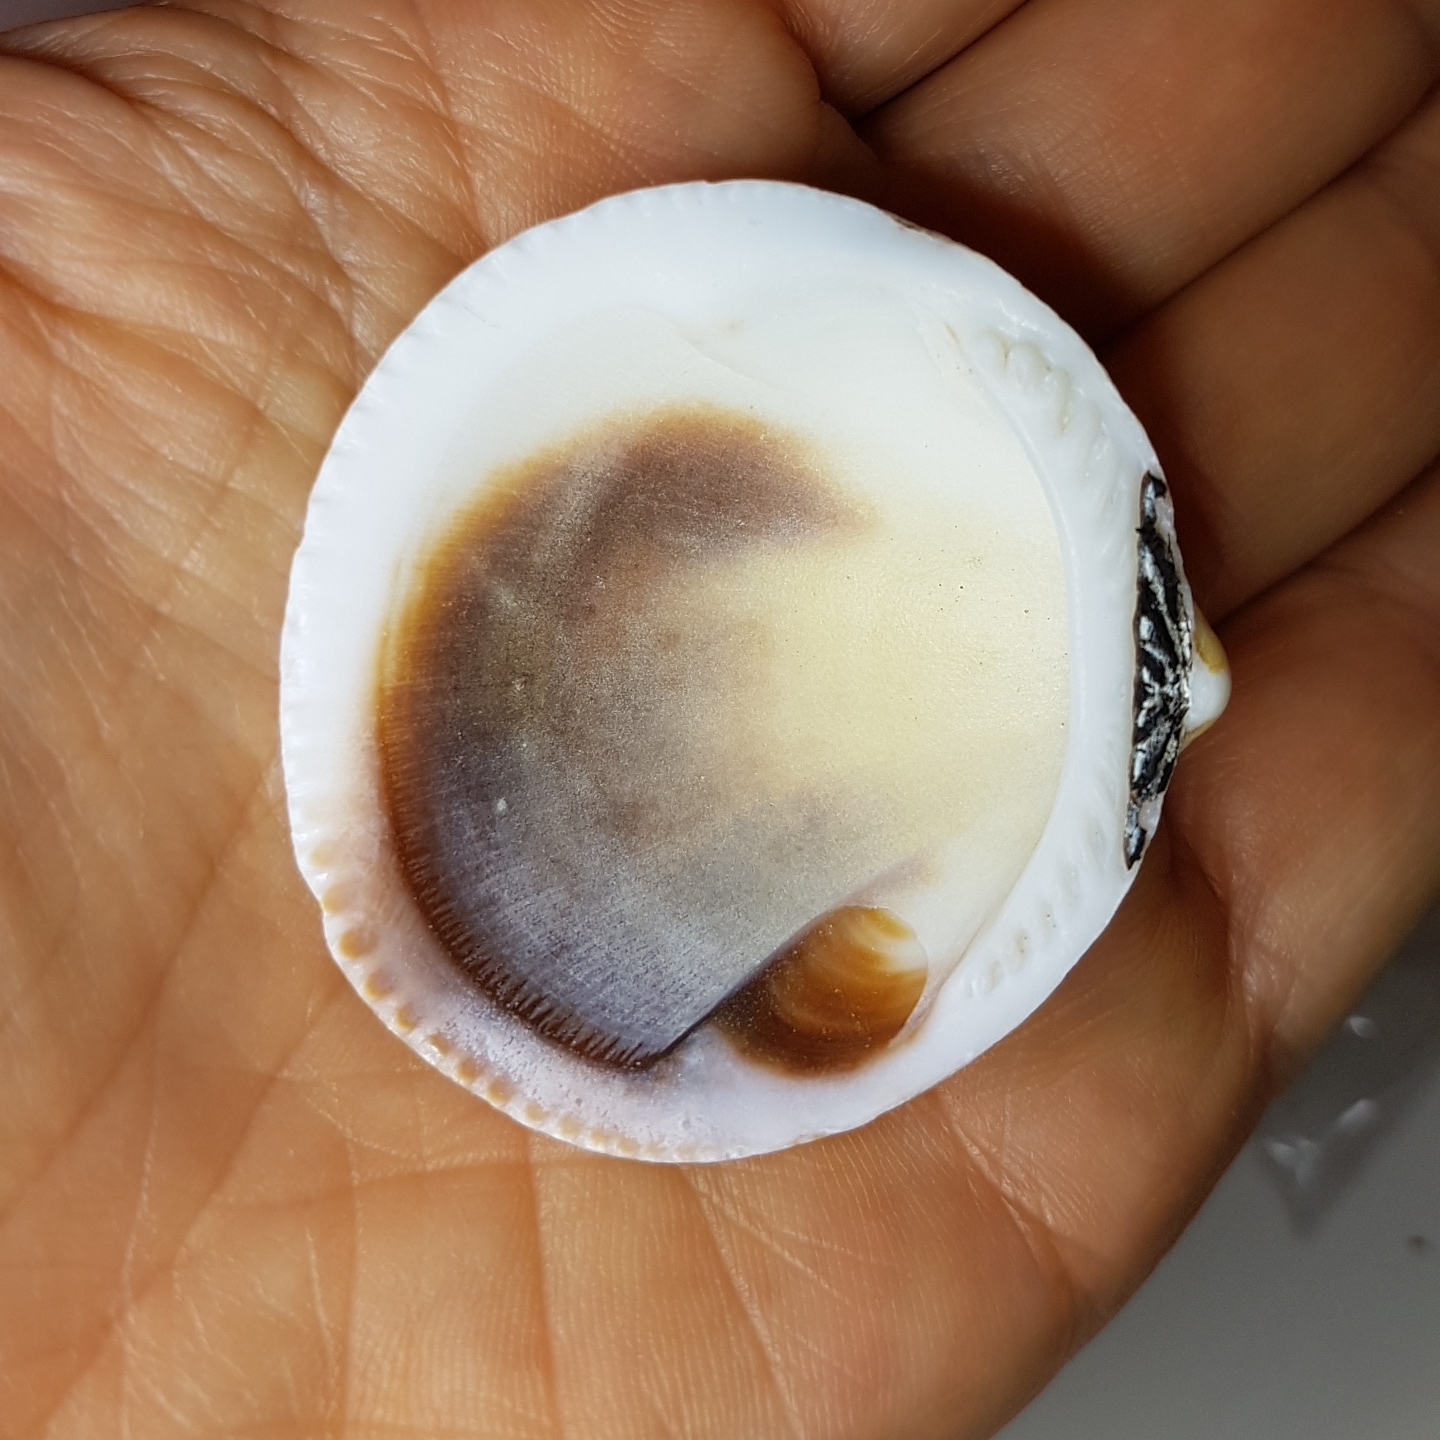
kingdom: Animalia
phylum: Mollusca
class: Bivalvia
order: Arcida
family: Glycymerididae
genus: Glycymeris
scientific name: Glycymeris glycymeris
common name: Dog-cockle
